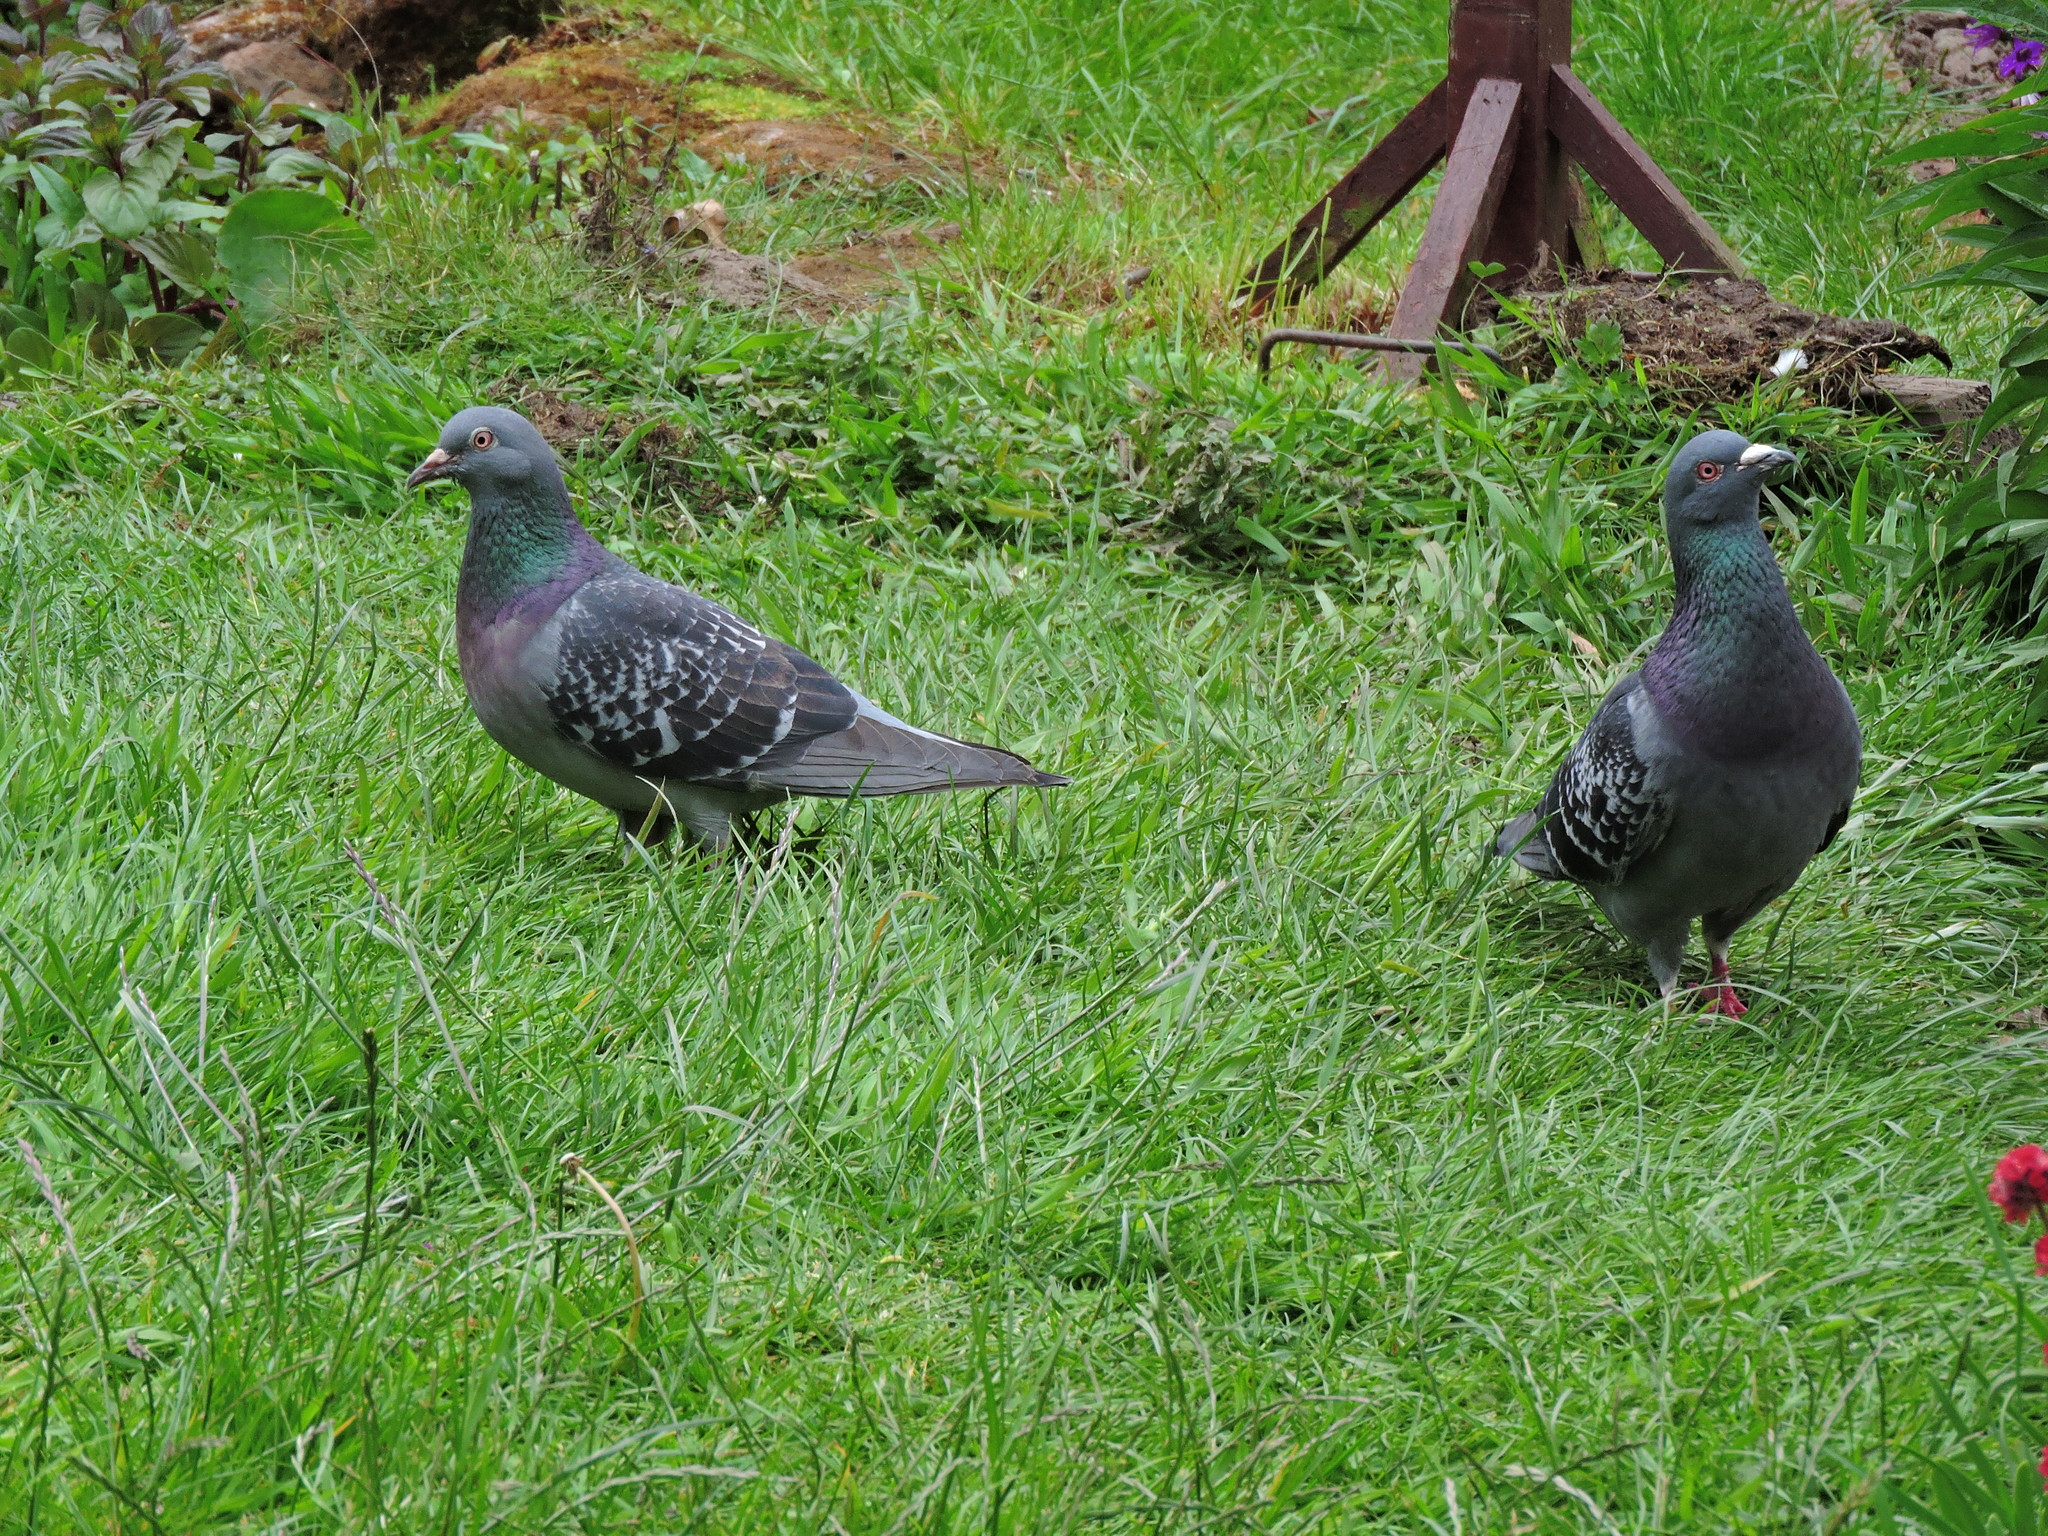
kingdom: Animalia
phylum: Chordata
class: Aves
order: Columbiformes
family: Columbidae
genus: Columba
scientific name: Columba livia
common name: Rock pigeon
